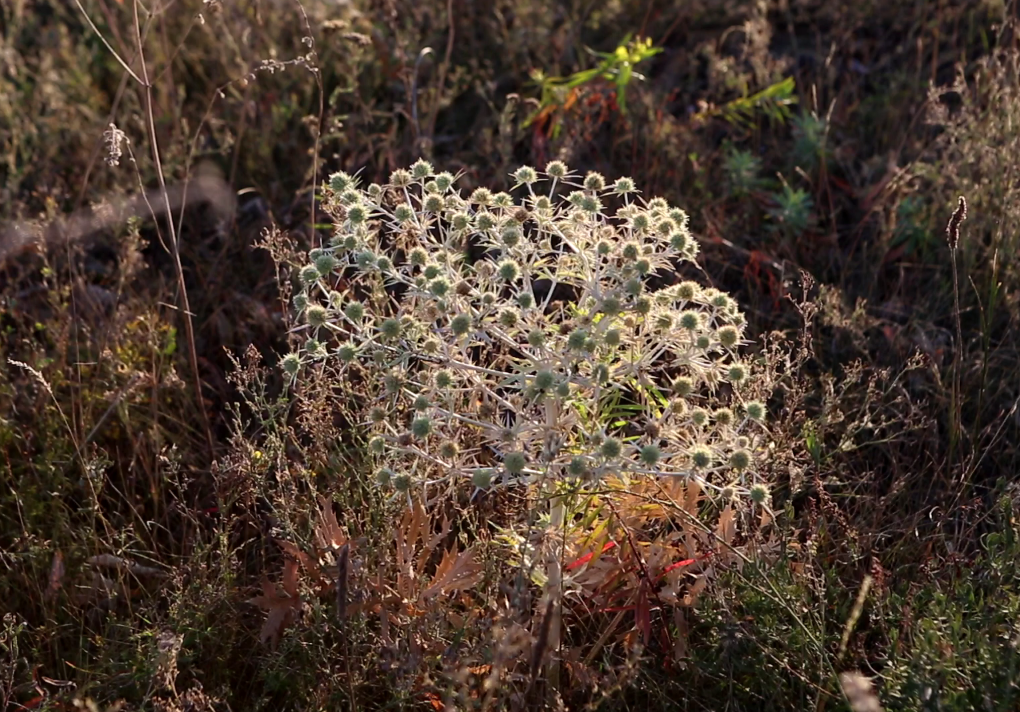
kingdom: Plantae
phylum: Tracheophyta
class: Magnoliopsida
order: Apiales
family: Apiaceae
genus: Eryngium
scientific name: Eryngium campestre
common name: Field eryngo
